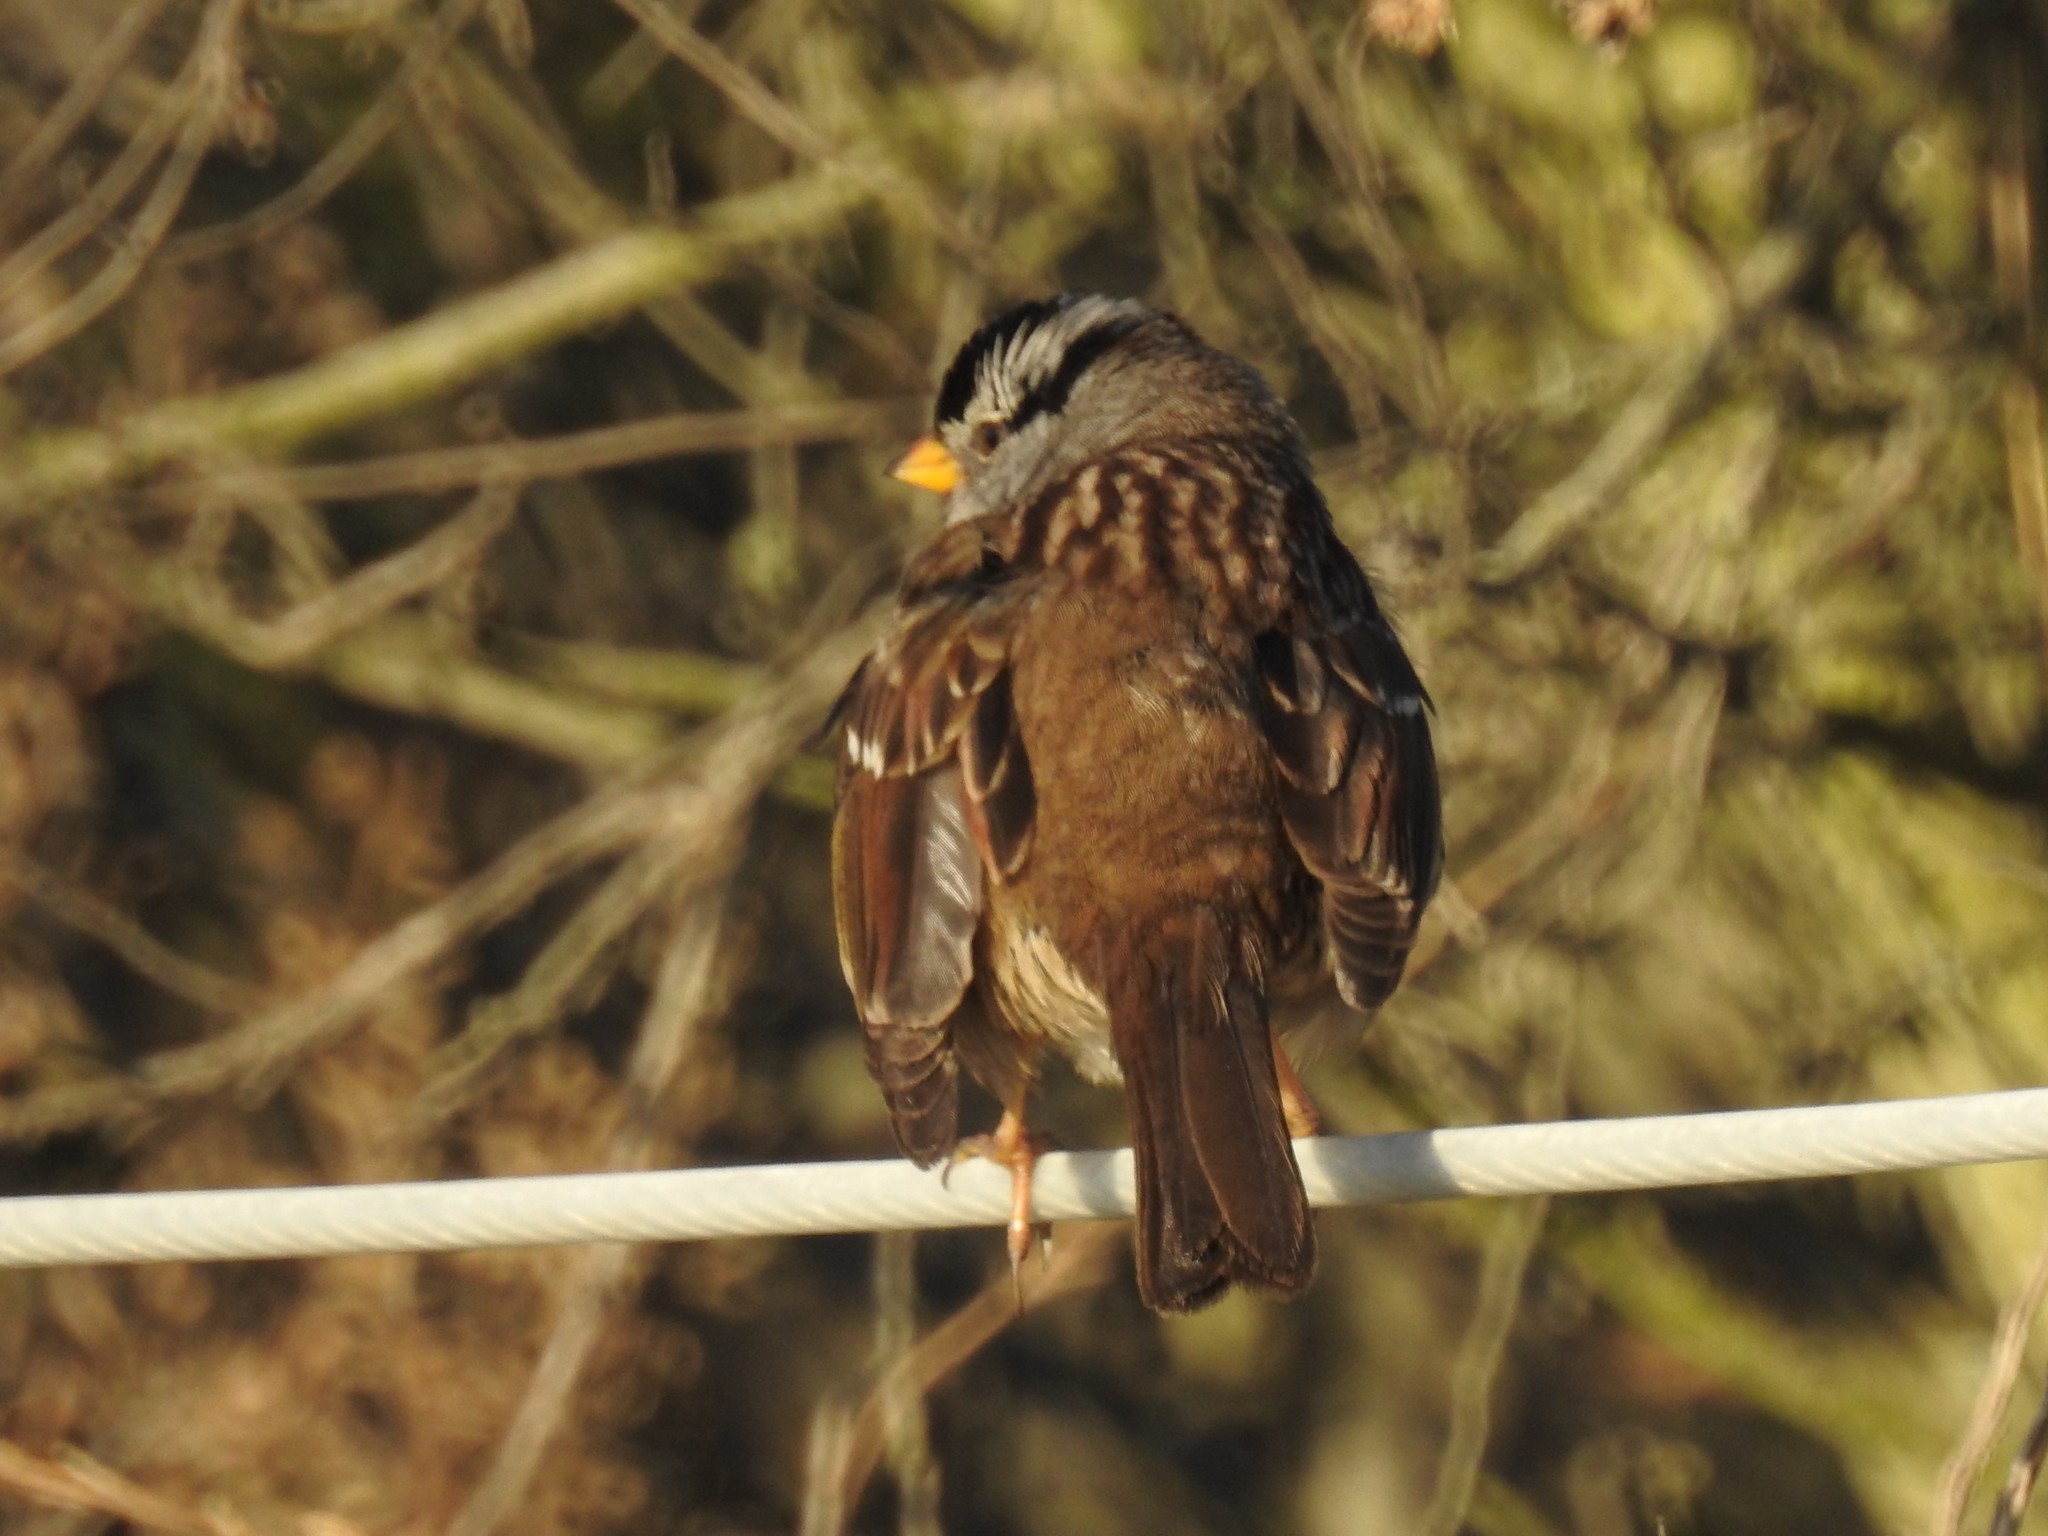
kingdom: Animalia
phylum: Chordata
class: Aves
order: Passeriformes
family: Passerellidae
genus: Zonotrichia
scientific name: Zonotrichia leucophrys
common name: White-crowned sparrow
